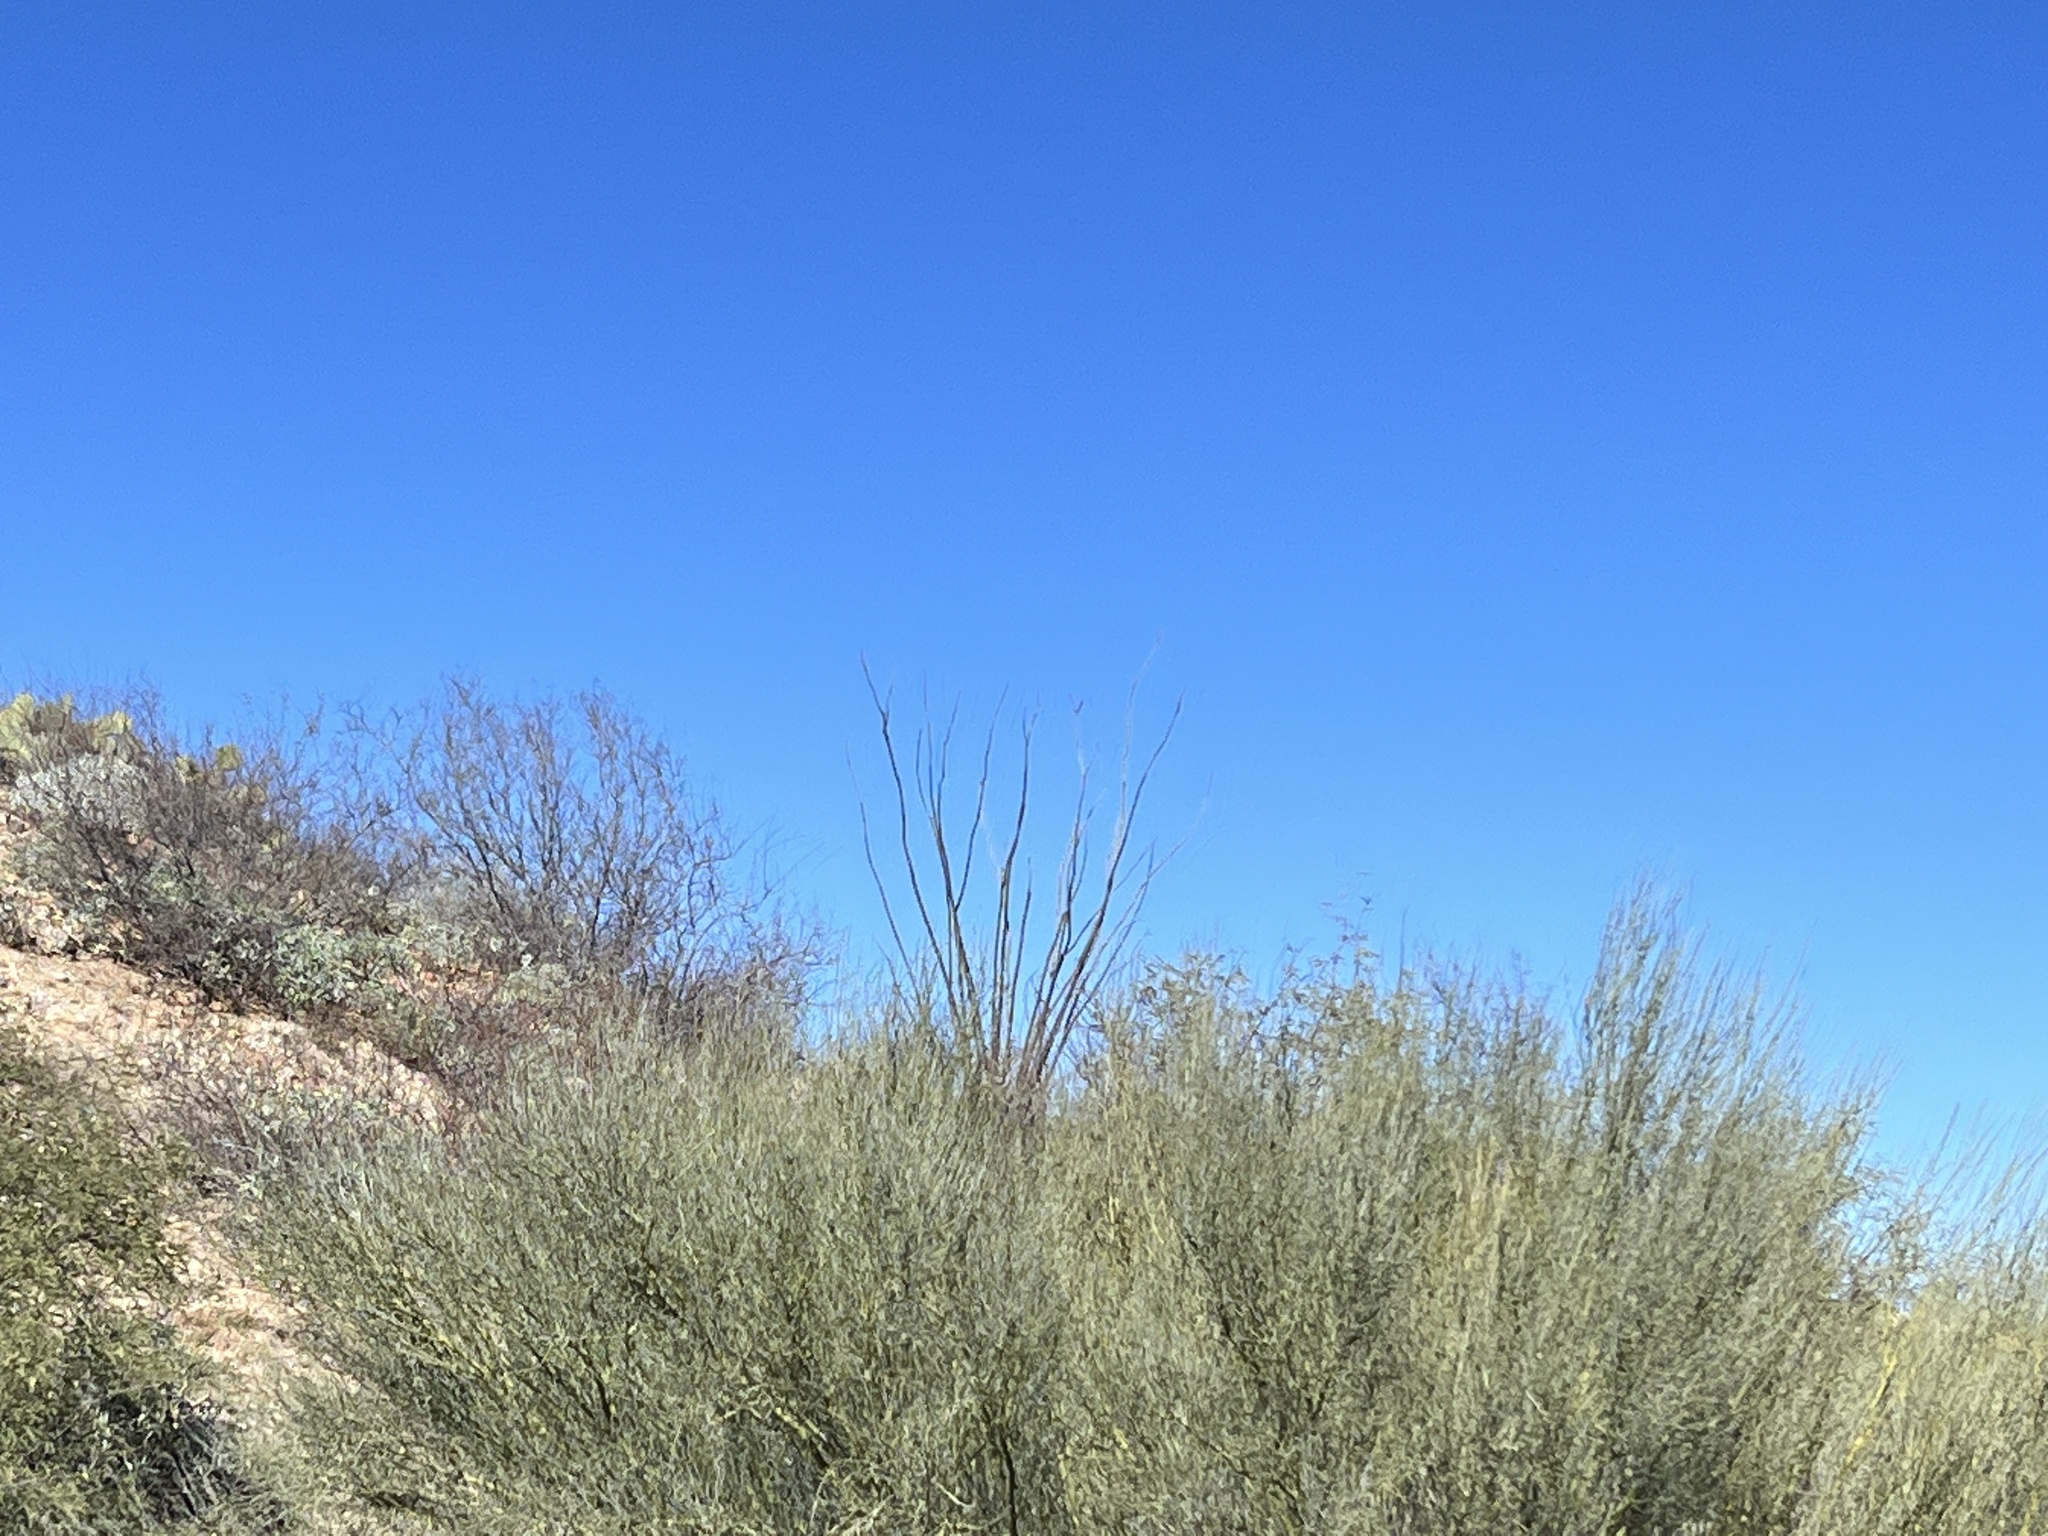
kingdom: Plantae
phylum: Tracheophyta
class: Magnoliopsida
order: Ericales
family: Fouquieriaceae
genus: Fouquieria
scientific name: Fouquieria splendens
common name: Vine-cactus
